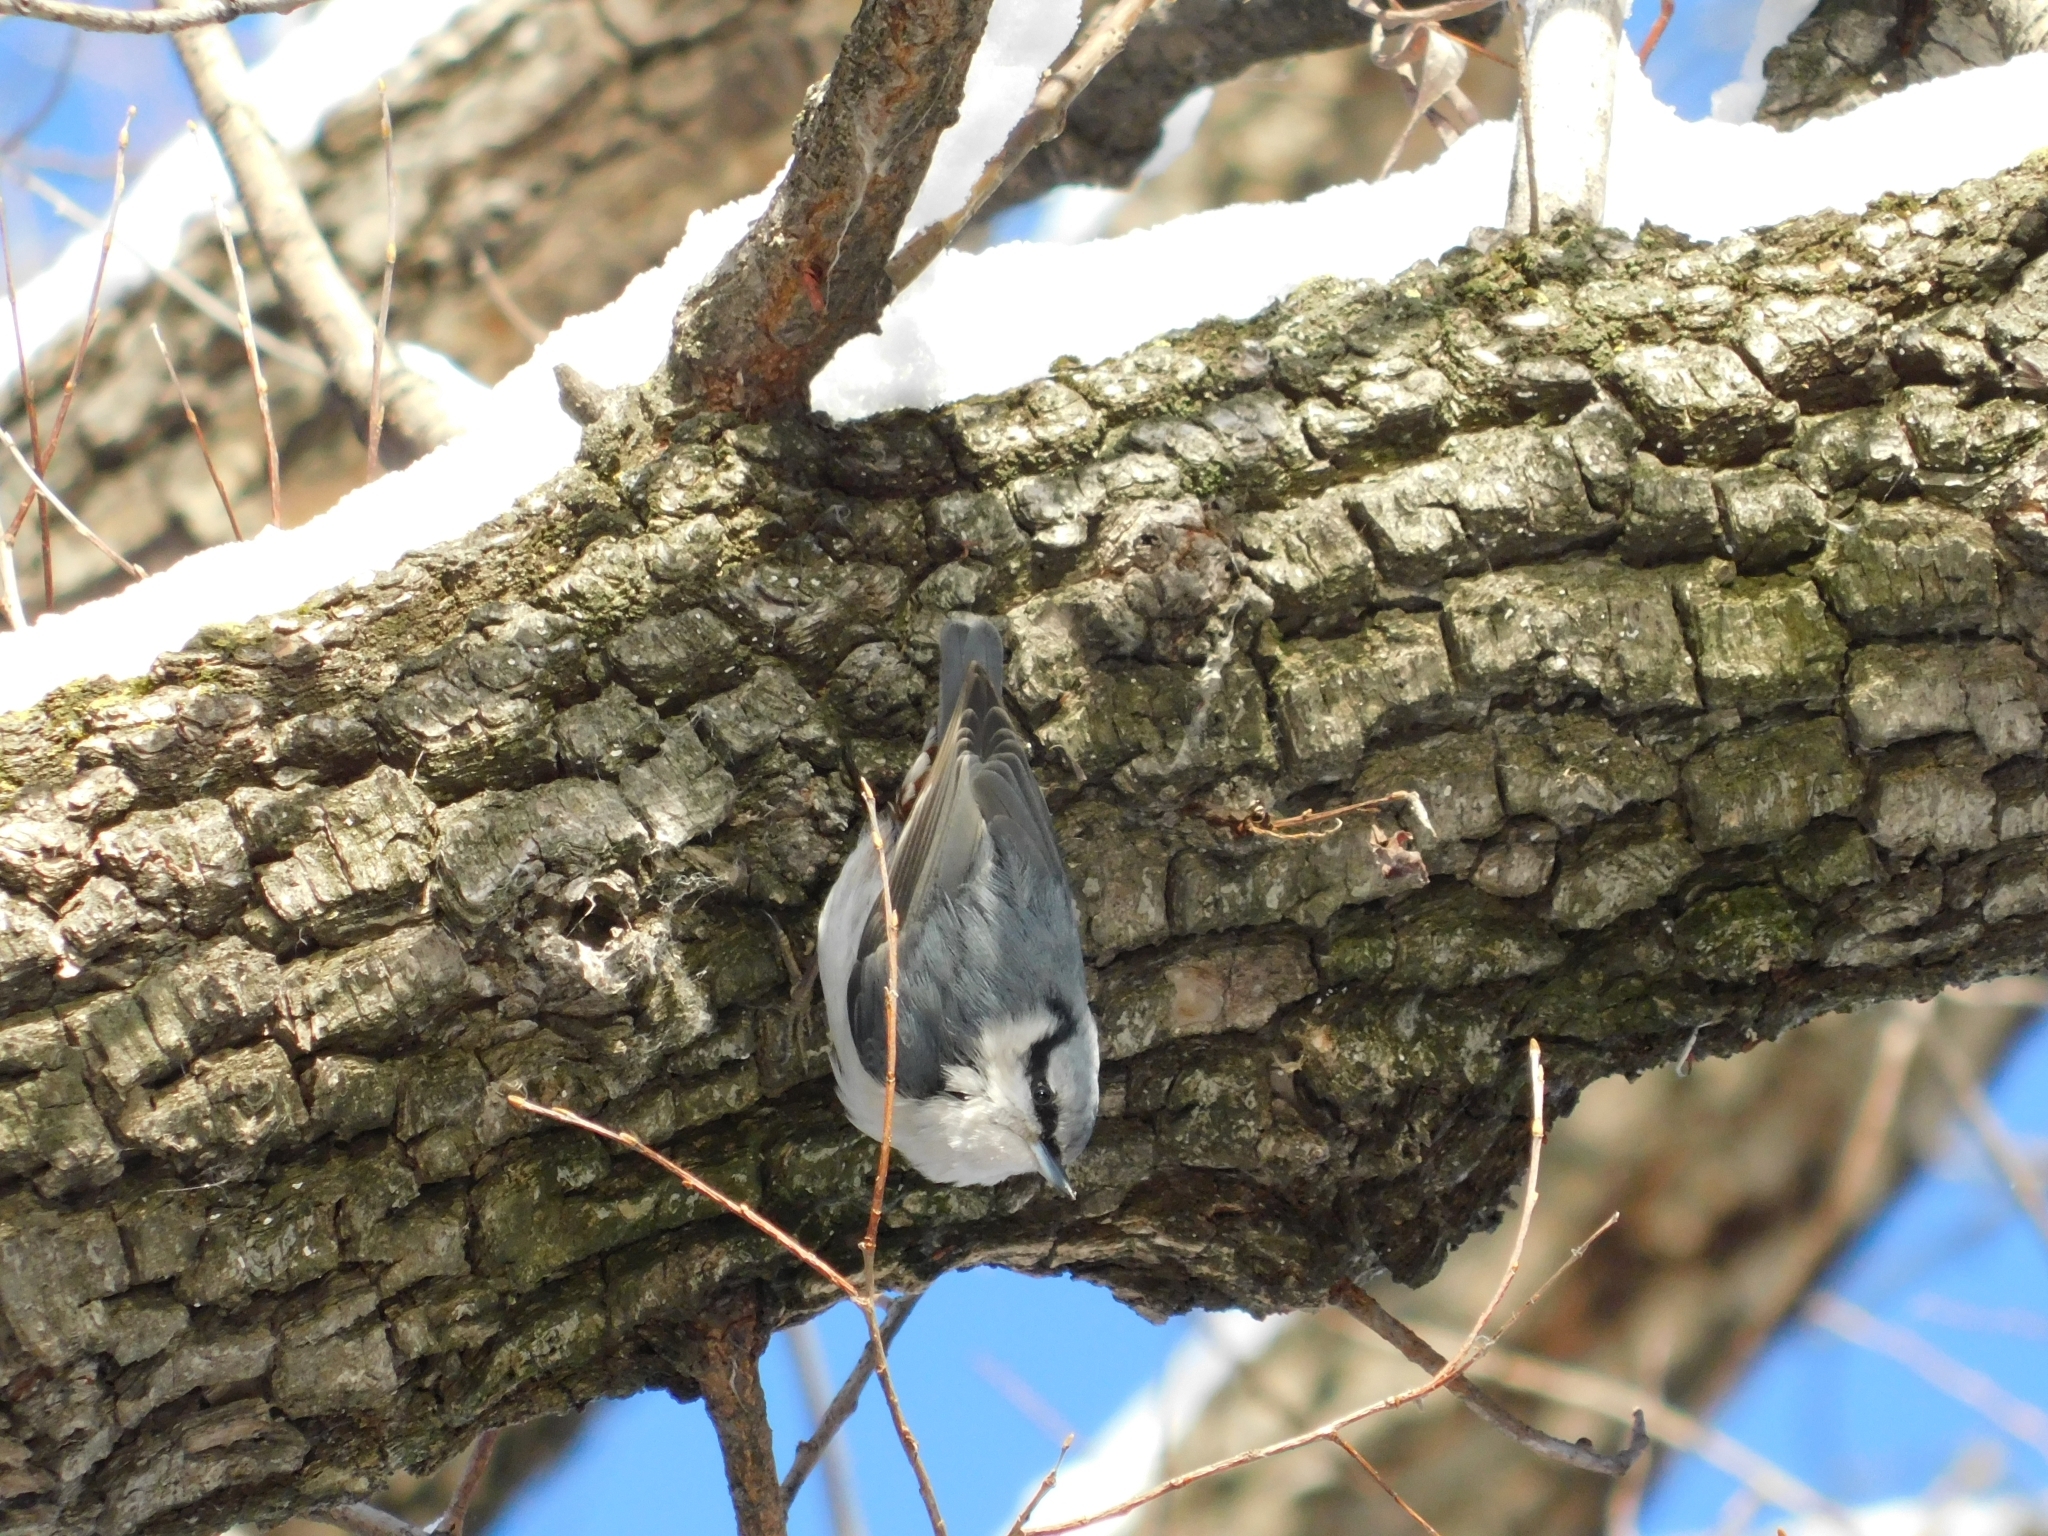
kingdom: Animalia
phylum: Chordata
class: Aves
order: Passeriformes
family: Sittidae
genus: Sitta
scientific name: Sitta europaea
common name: Eurasian nuthatch
